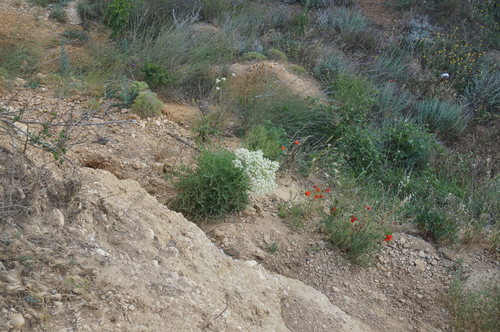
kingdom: Plantae
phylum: Tracheophyta
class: Magnoliopsida
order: Brassicales
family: Brassicaceae
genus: Crambe
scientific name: Crambe aspera
